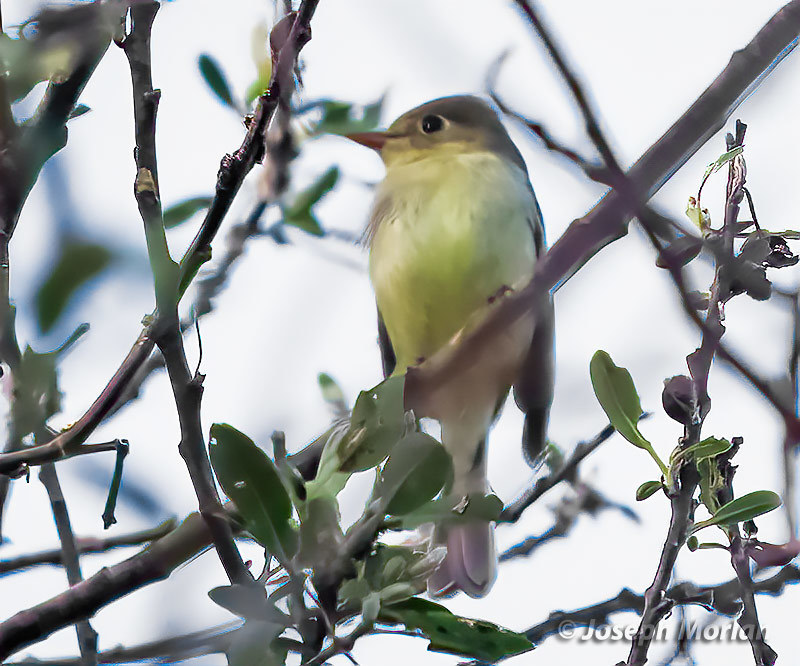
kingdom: Animalia
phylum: Chordata
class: Aves
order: Passeriformes
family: Tyrannidae
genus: Empidonax
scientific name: Empidonax difficilis
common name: Pacific-slope flycatcher
